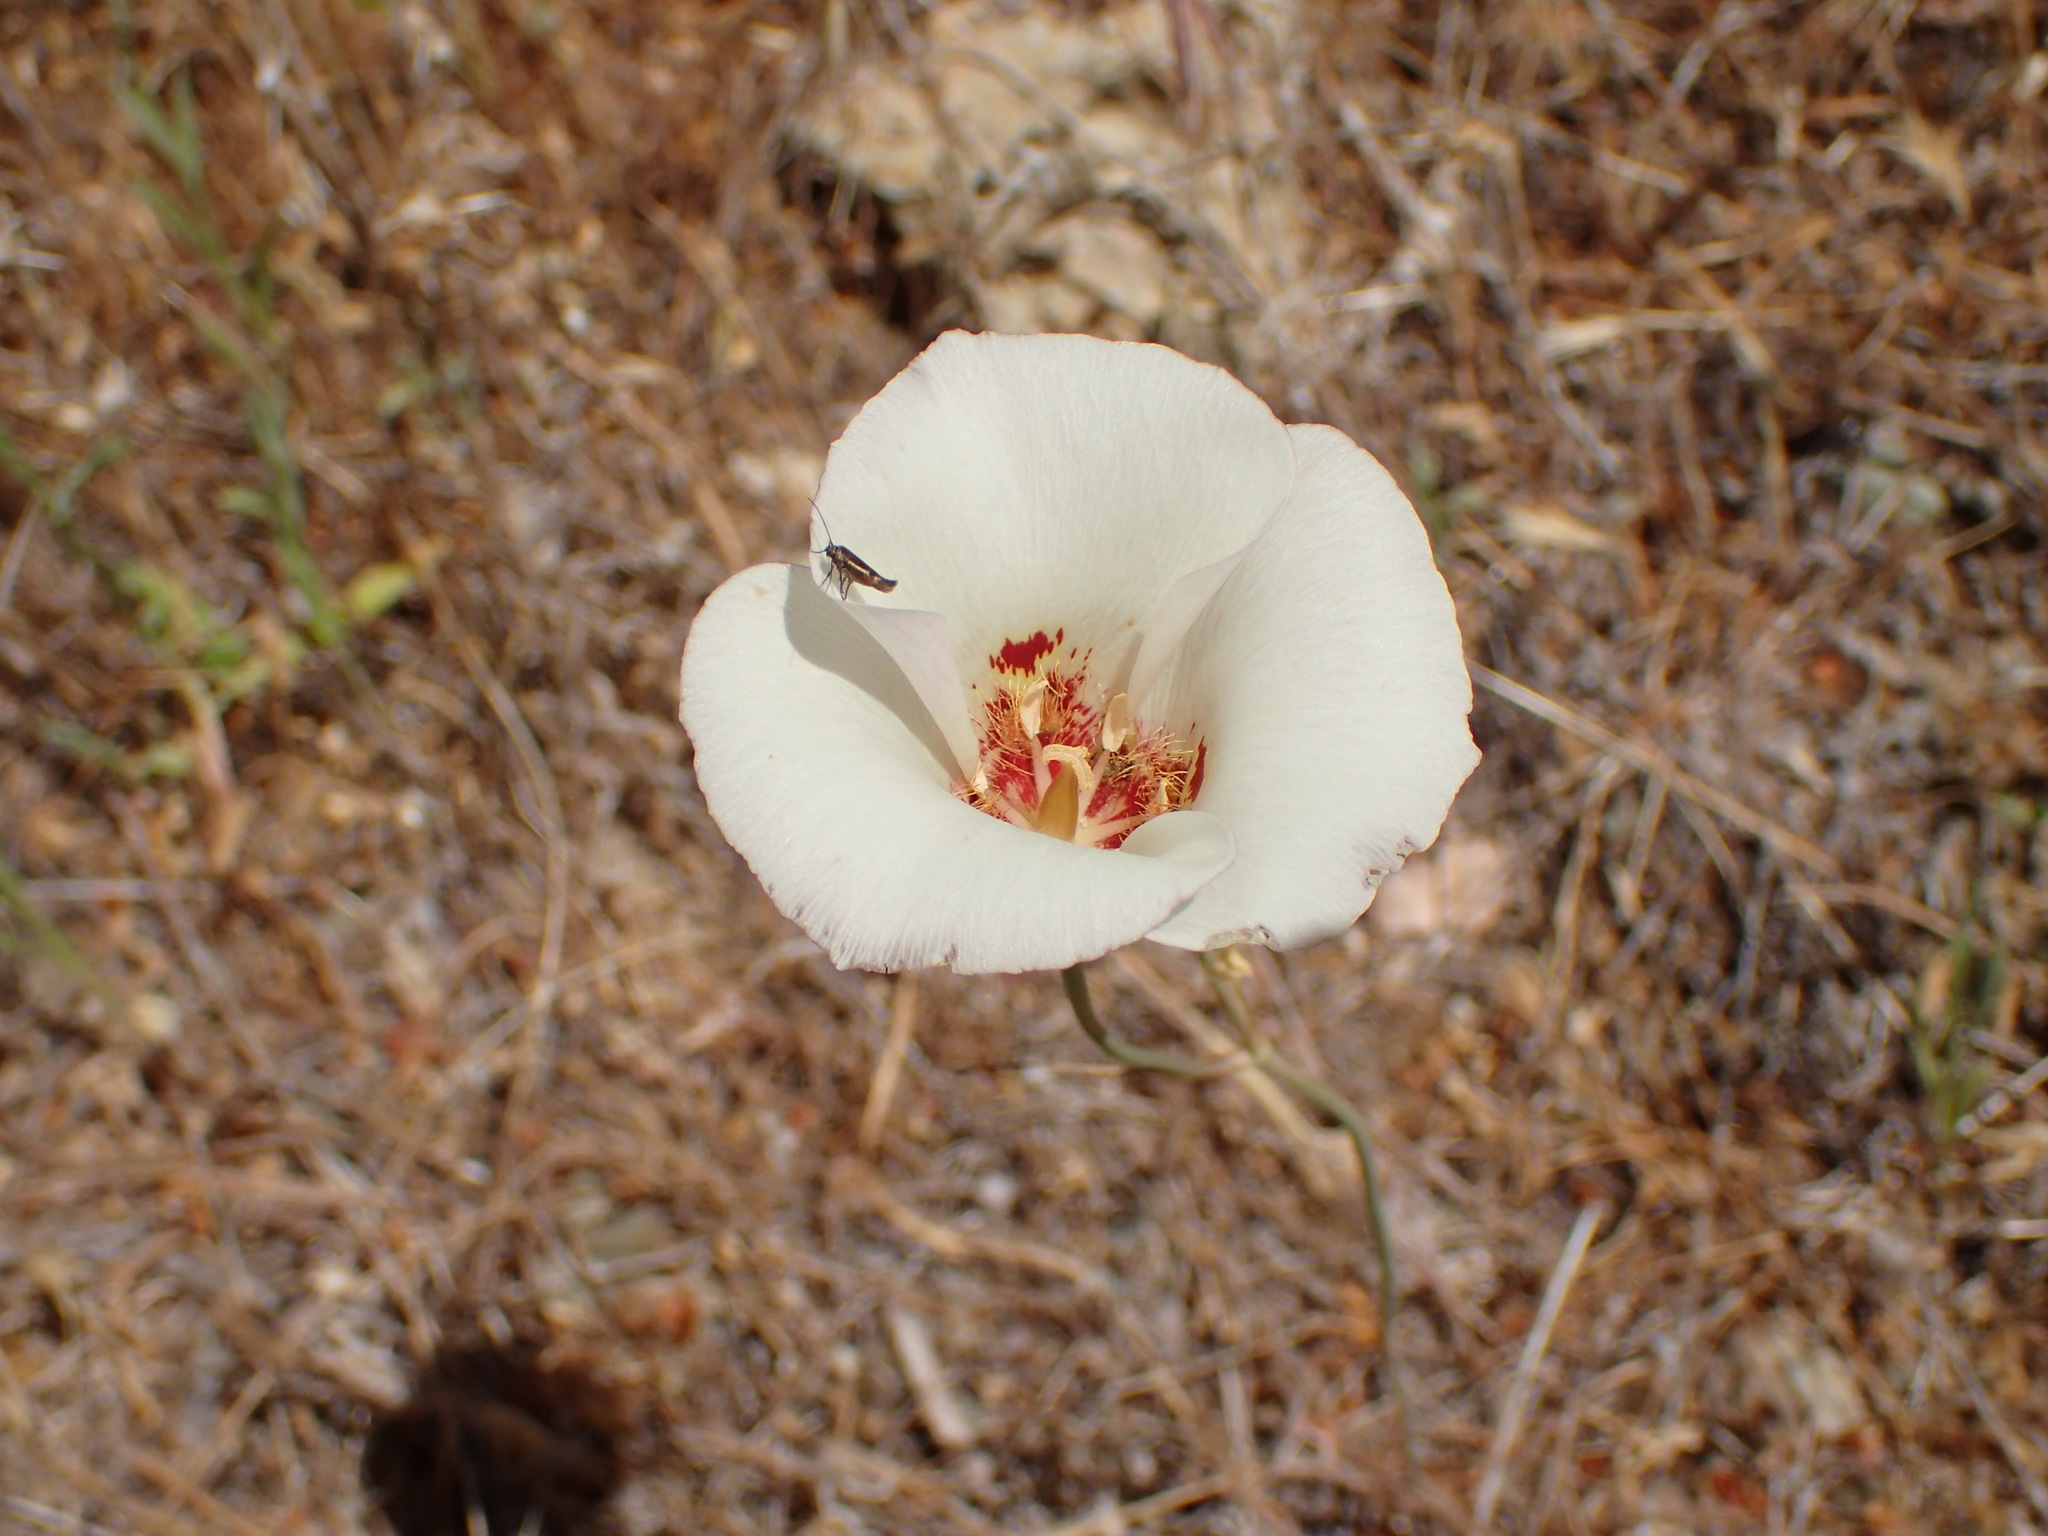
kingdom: Plantae
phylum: Tracheophyta
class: Liliopsida
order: Liliales
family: Liliaceae
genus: Calochortus
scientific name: Calochortus venustus
